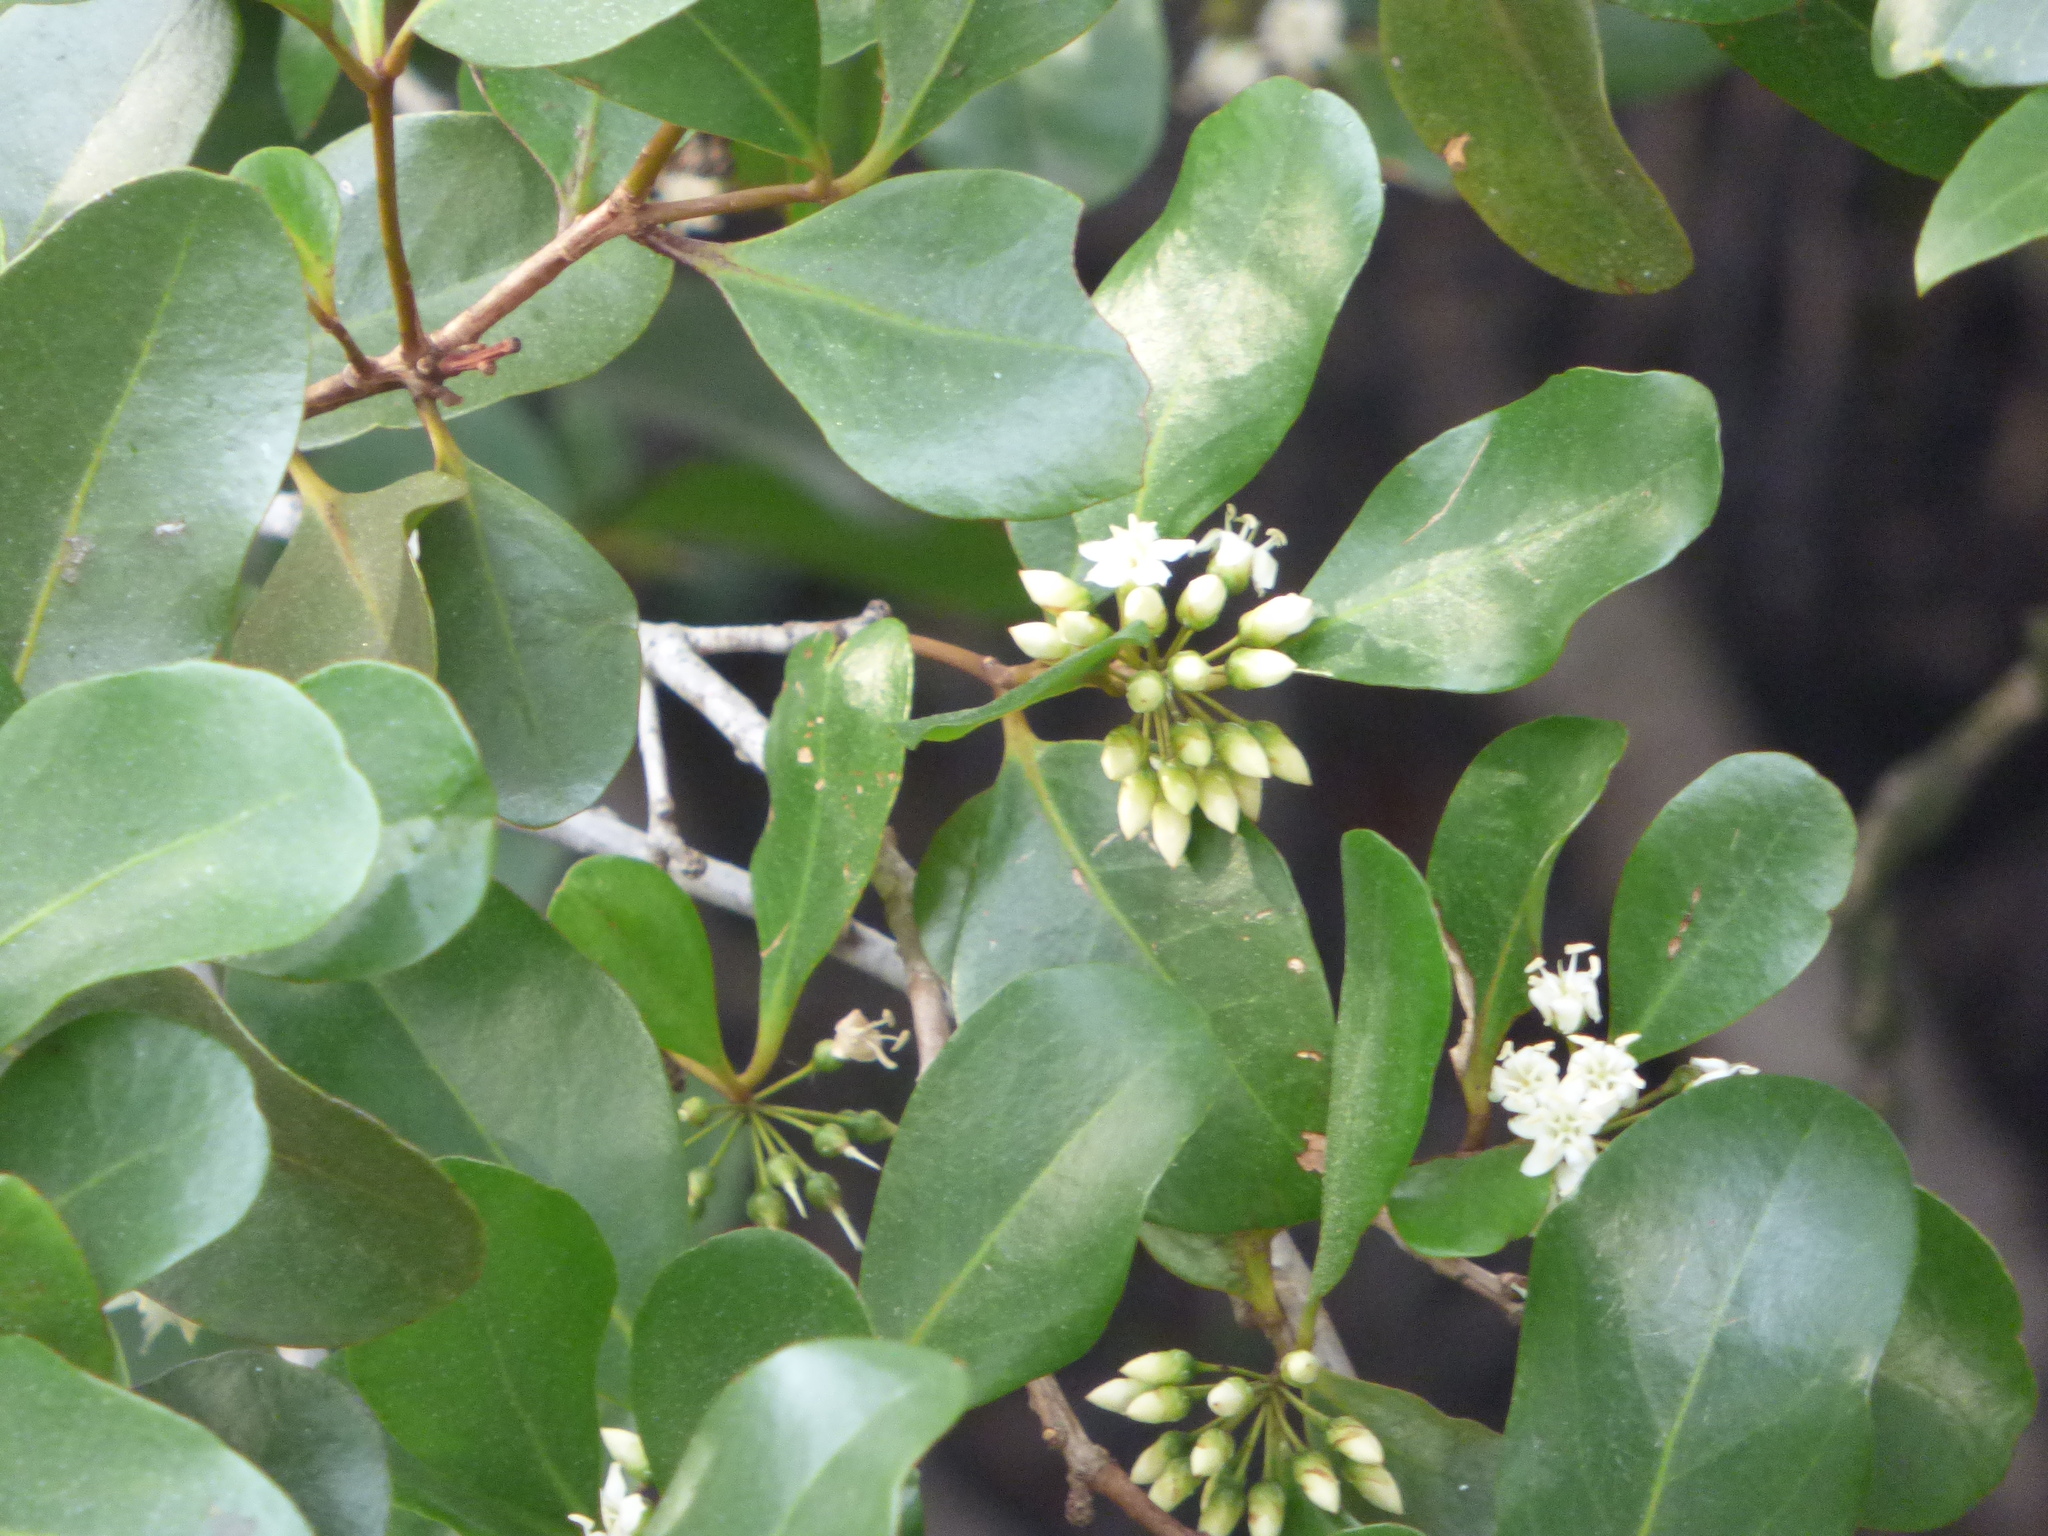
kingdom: Plantae
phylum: Tracheophyta
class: Magnoliopsida
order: Ericales
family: Primulaceae
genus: Aegiceras
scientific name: Aegiceras corniculatum
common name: River mangrove
